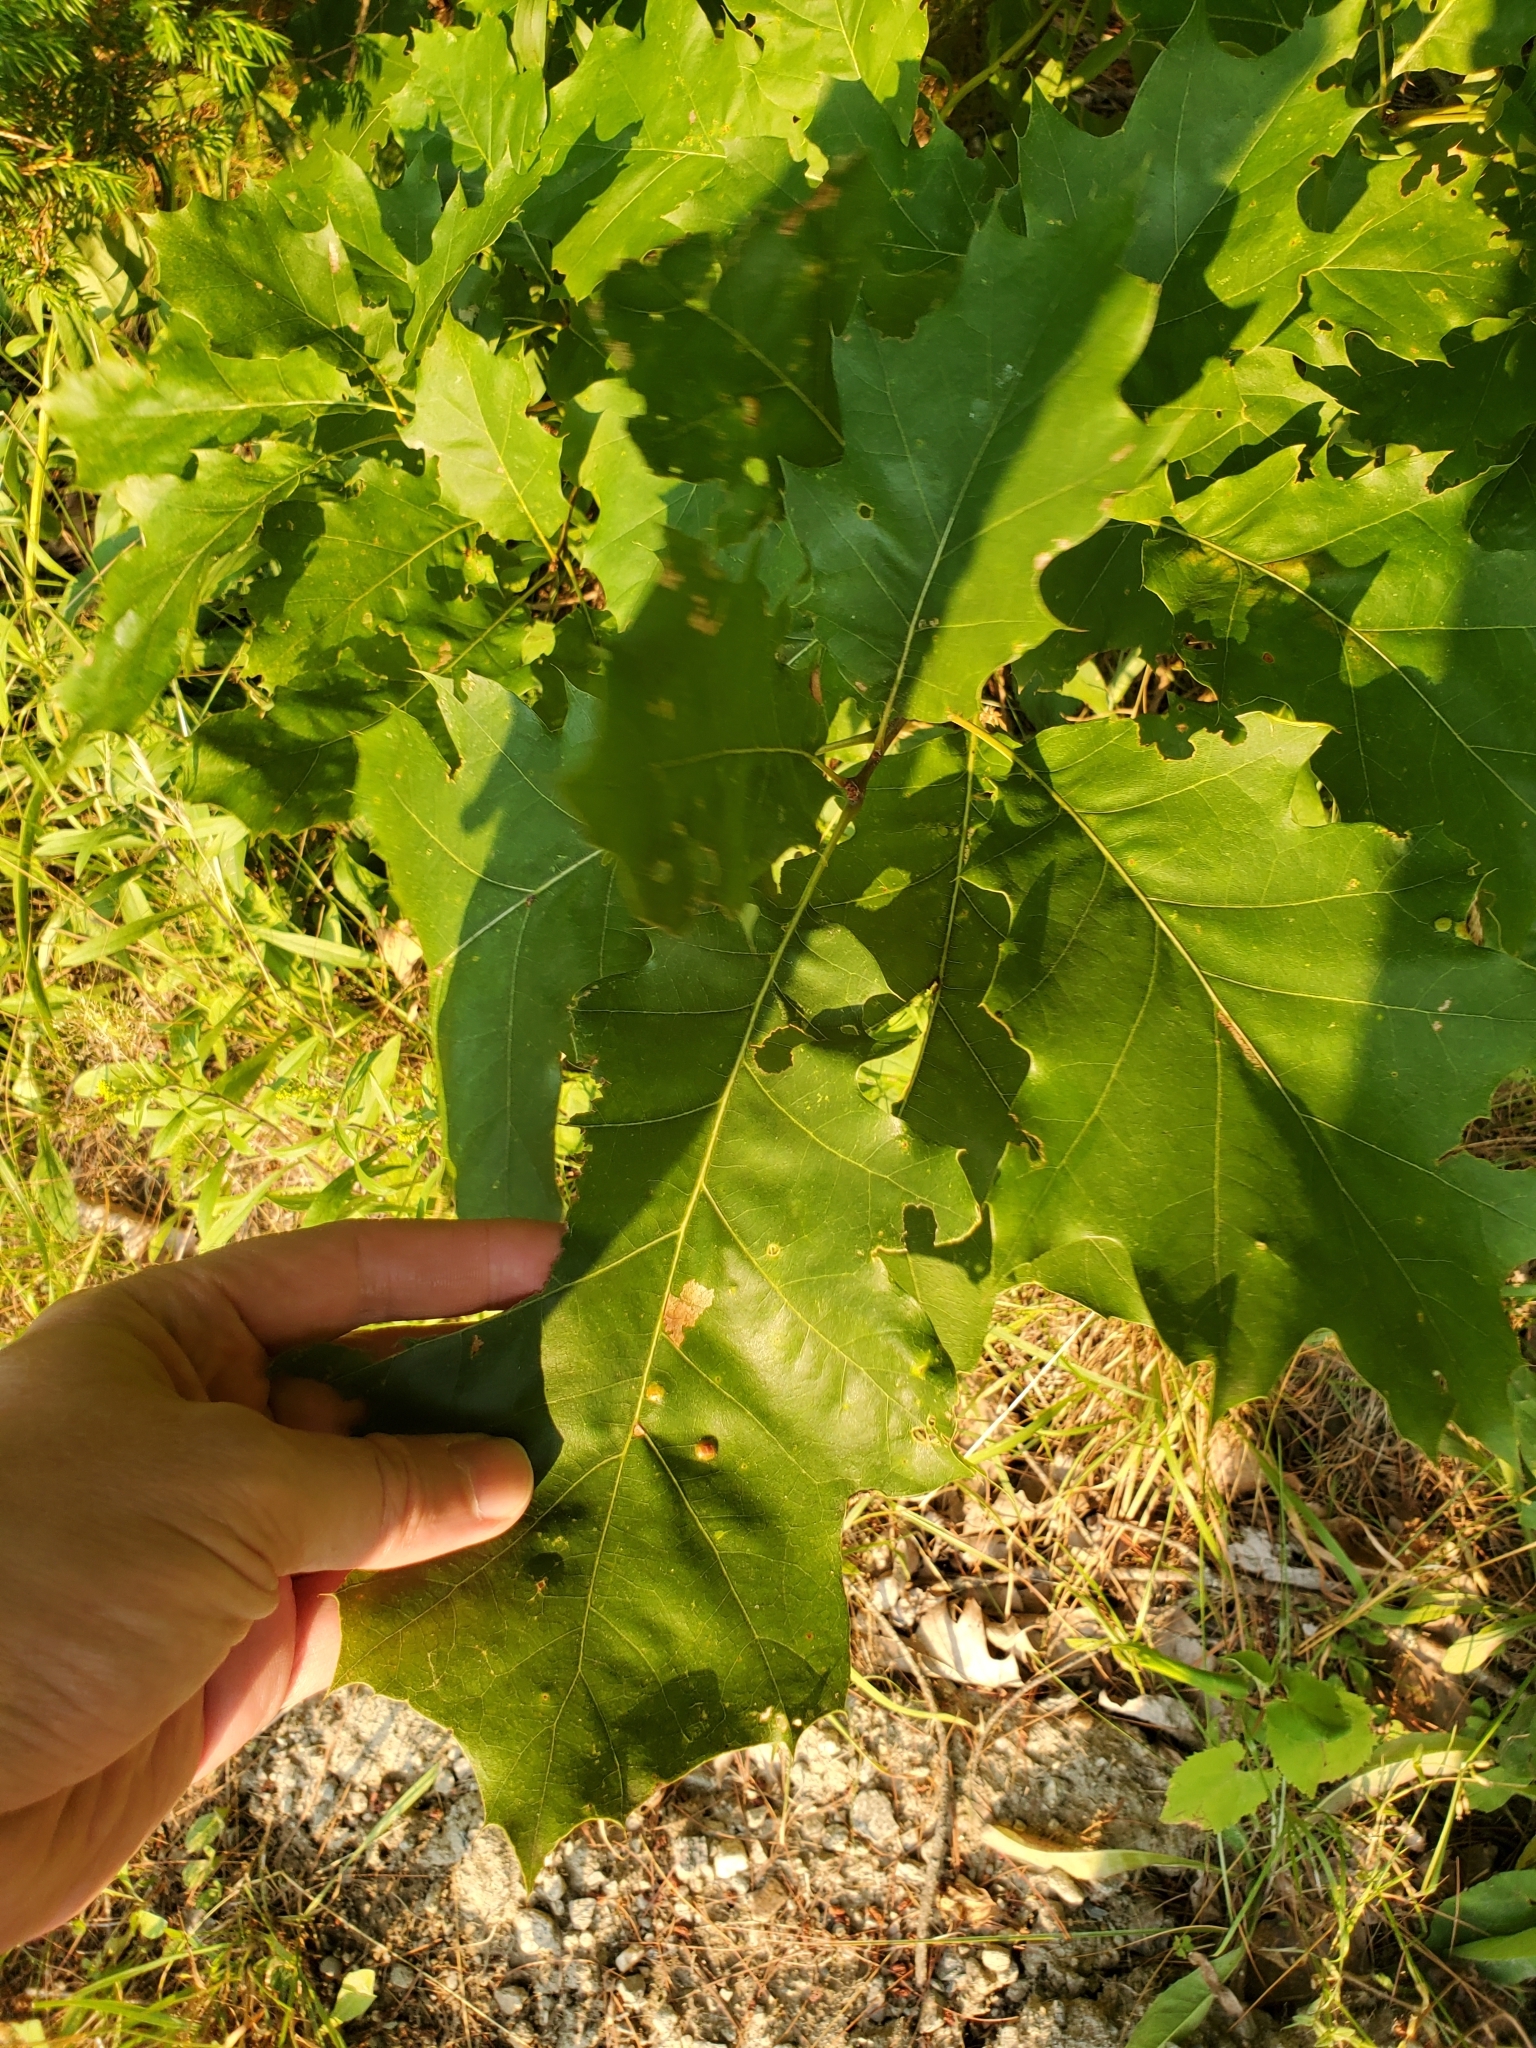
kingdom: Plantae
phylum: Tracheophyta
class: Magnoliopsida
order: Fagales
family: Fagaceae
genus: Quercus
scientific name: Quercus rubra
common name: Red oak
